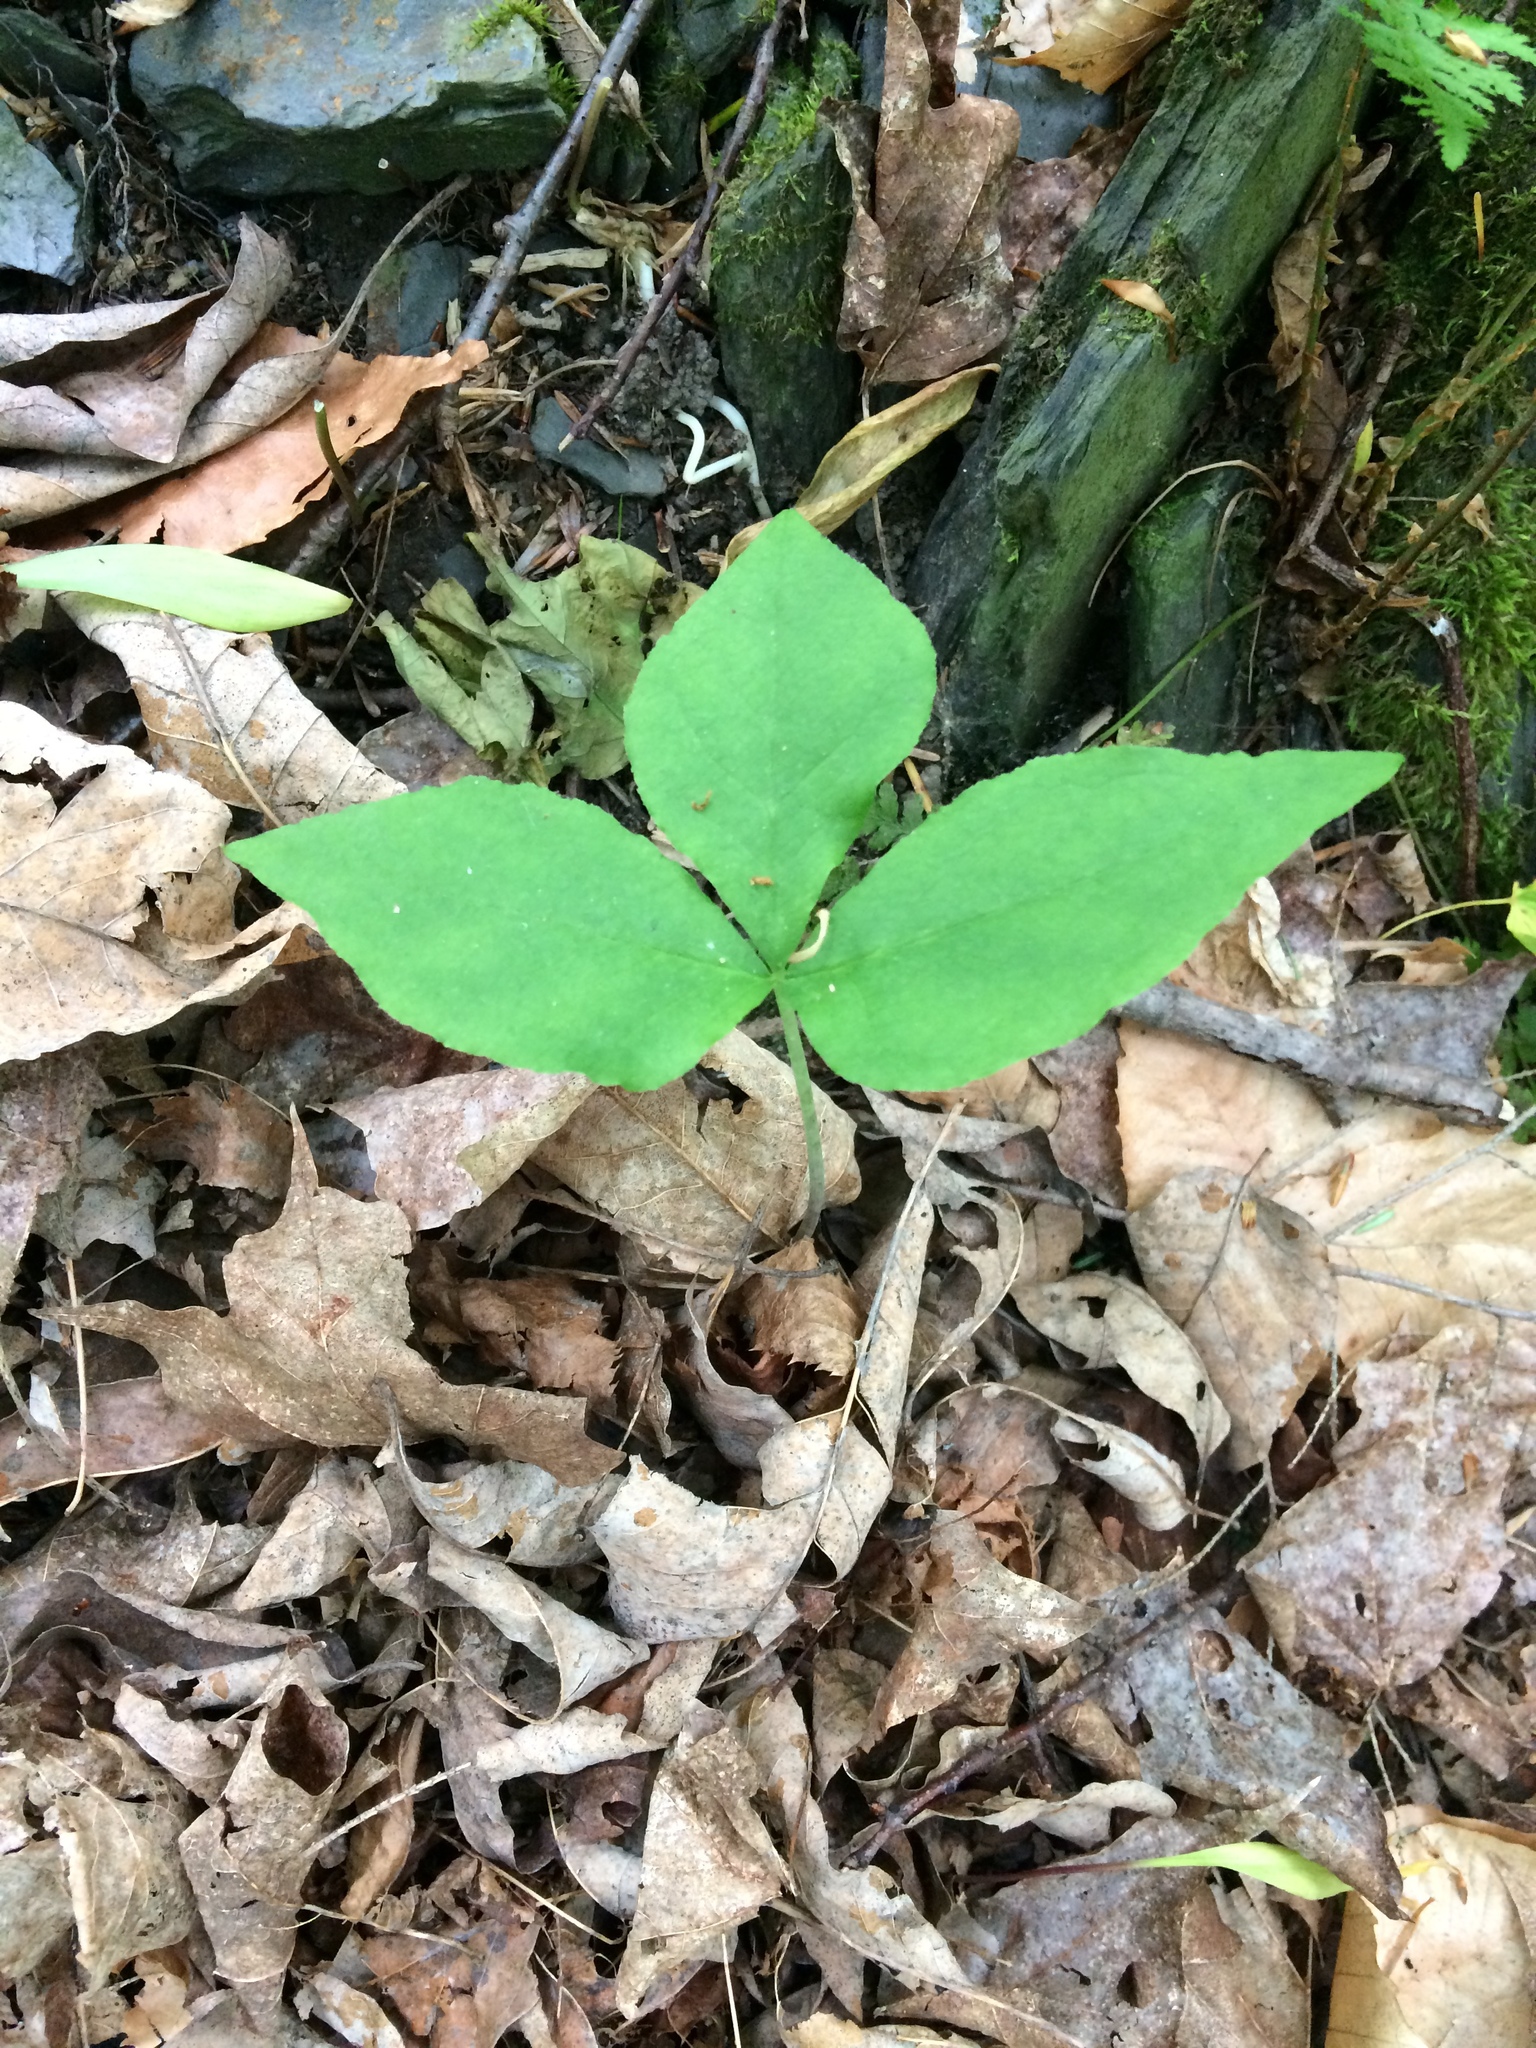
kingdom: Plantae
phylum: Tracheophyta
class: Liliopsida
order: Alismatales
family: Araceae
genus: Arisaema
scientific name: Arisaema triphyllum
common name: Jack-in-the-pulpit
